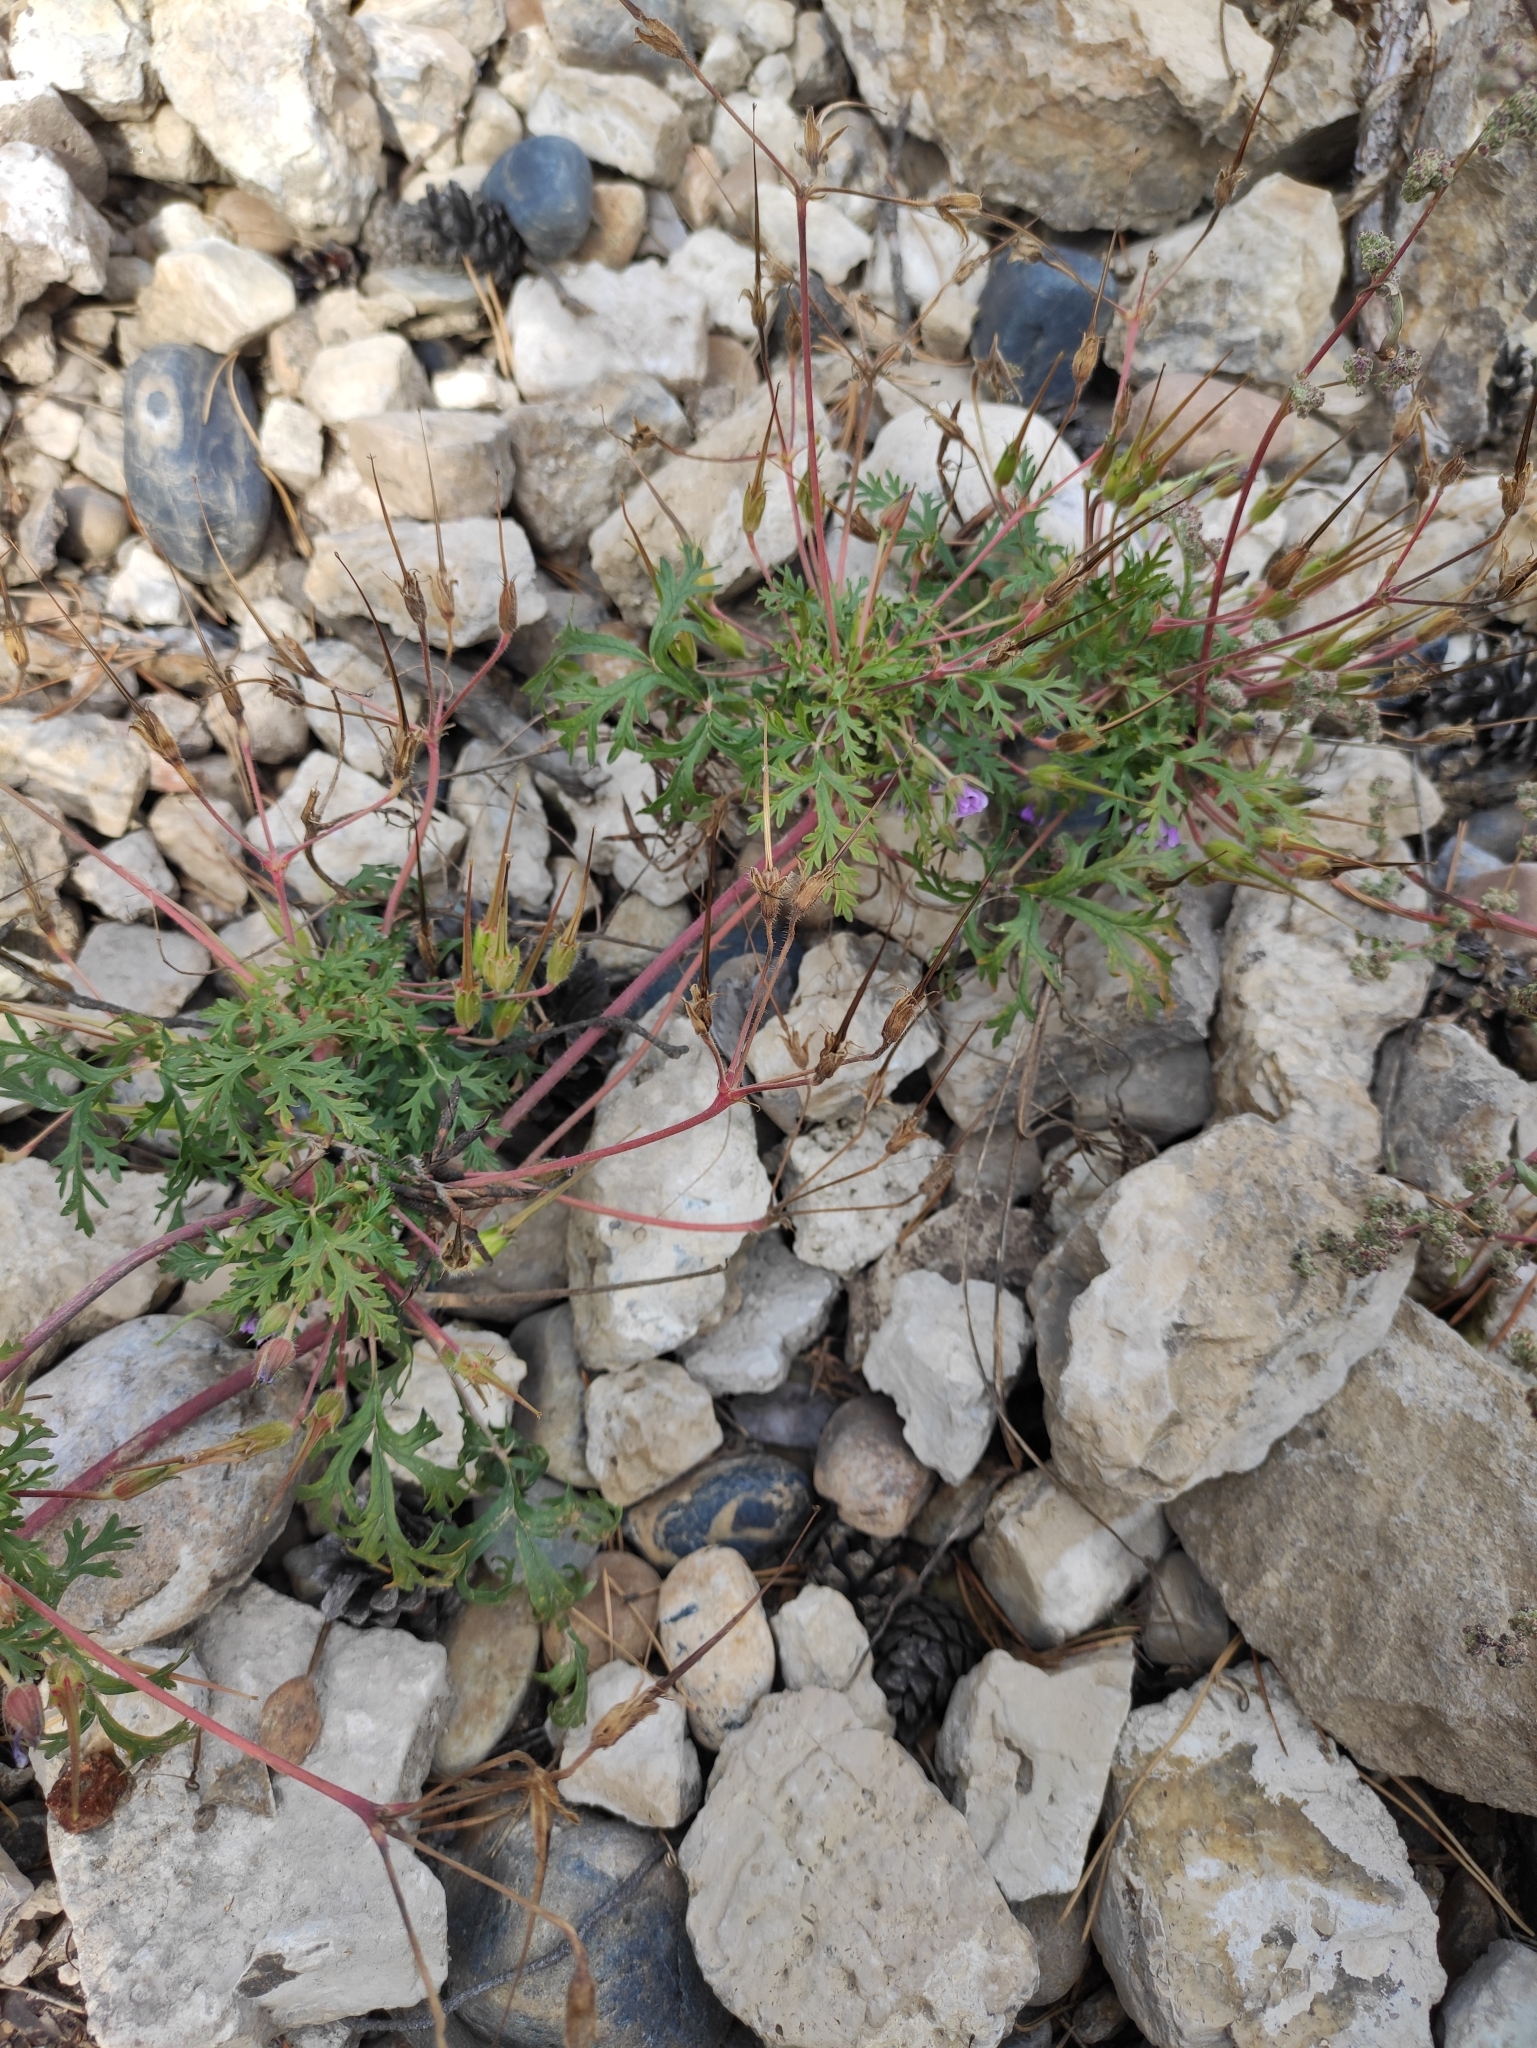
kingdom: Plantae
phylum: Tracheophyta
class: Magnoliopsida
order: Geraniales
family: Geraniaceae
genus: Erodium
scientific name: Erodium cicutarium
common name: Common stork's-bill
